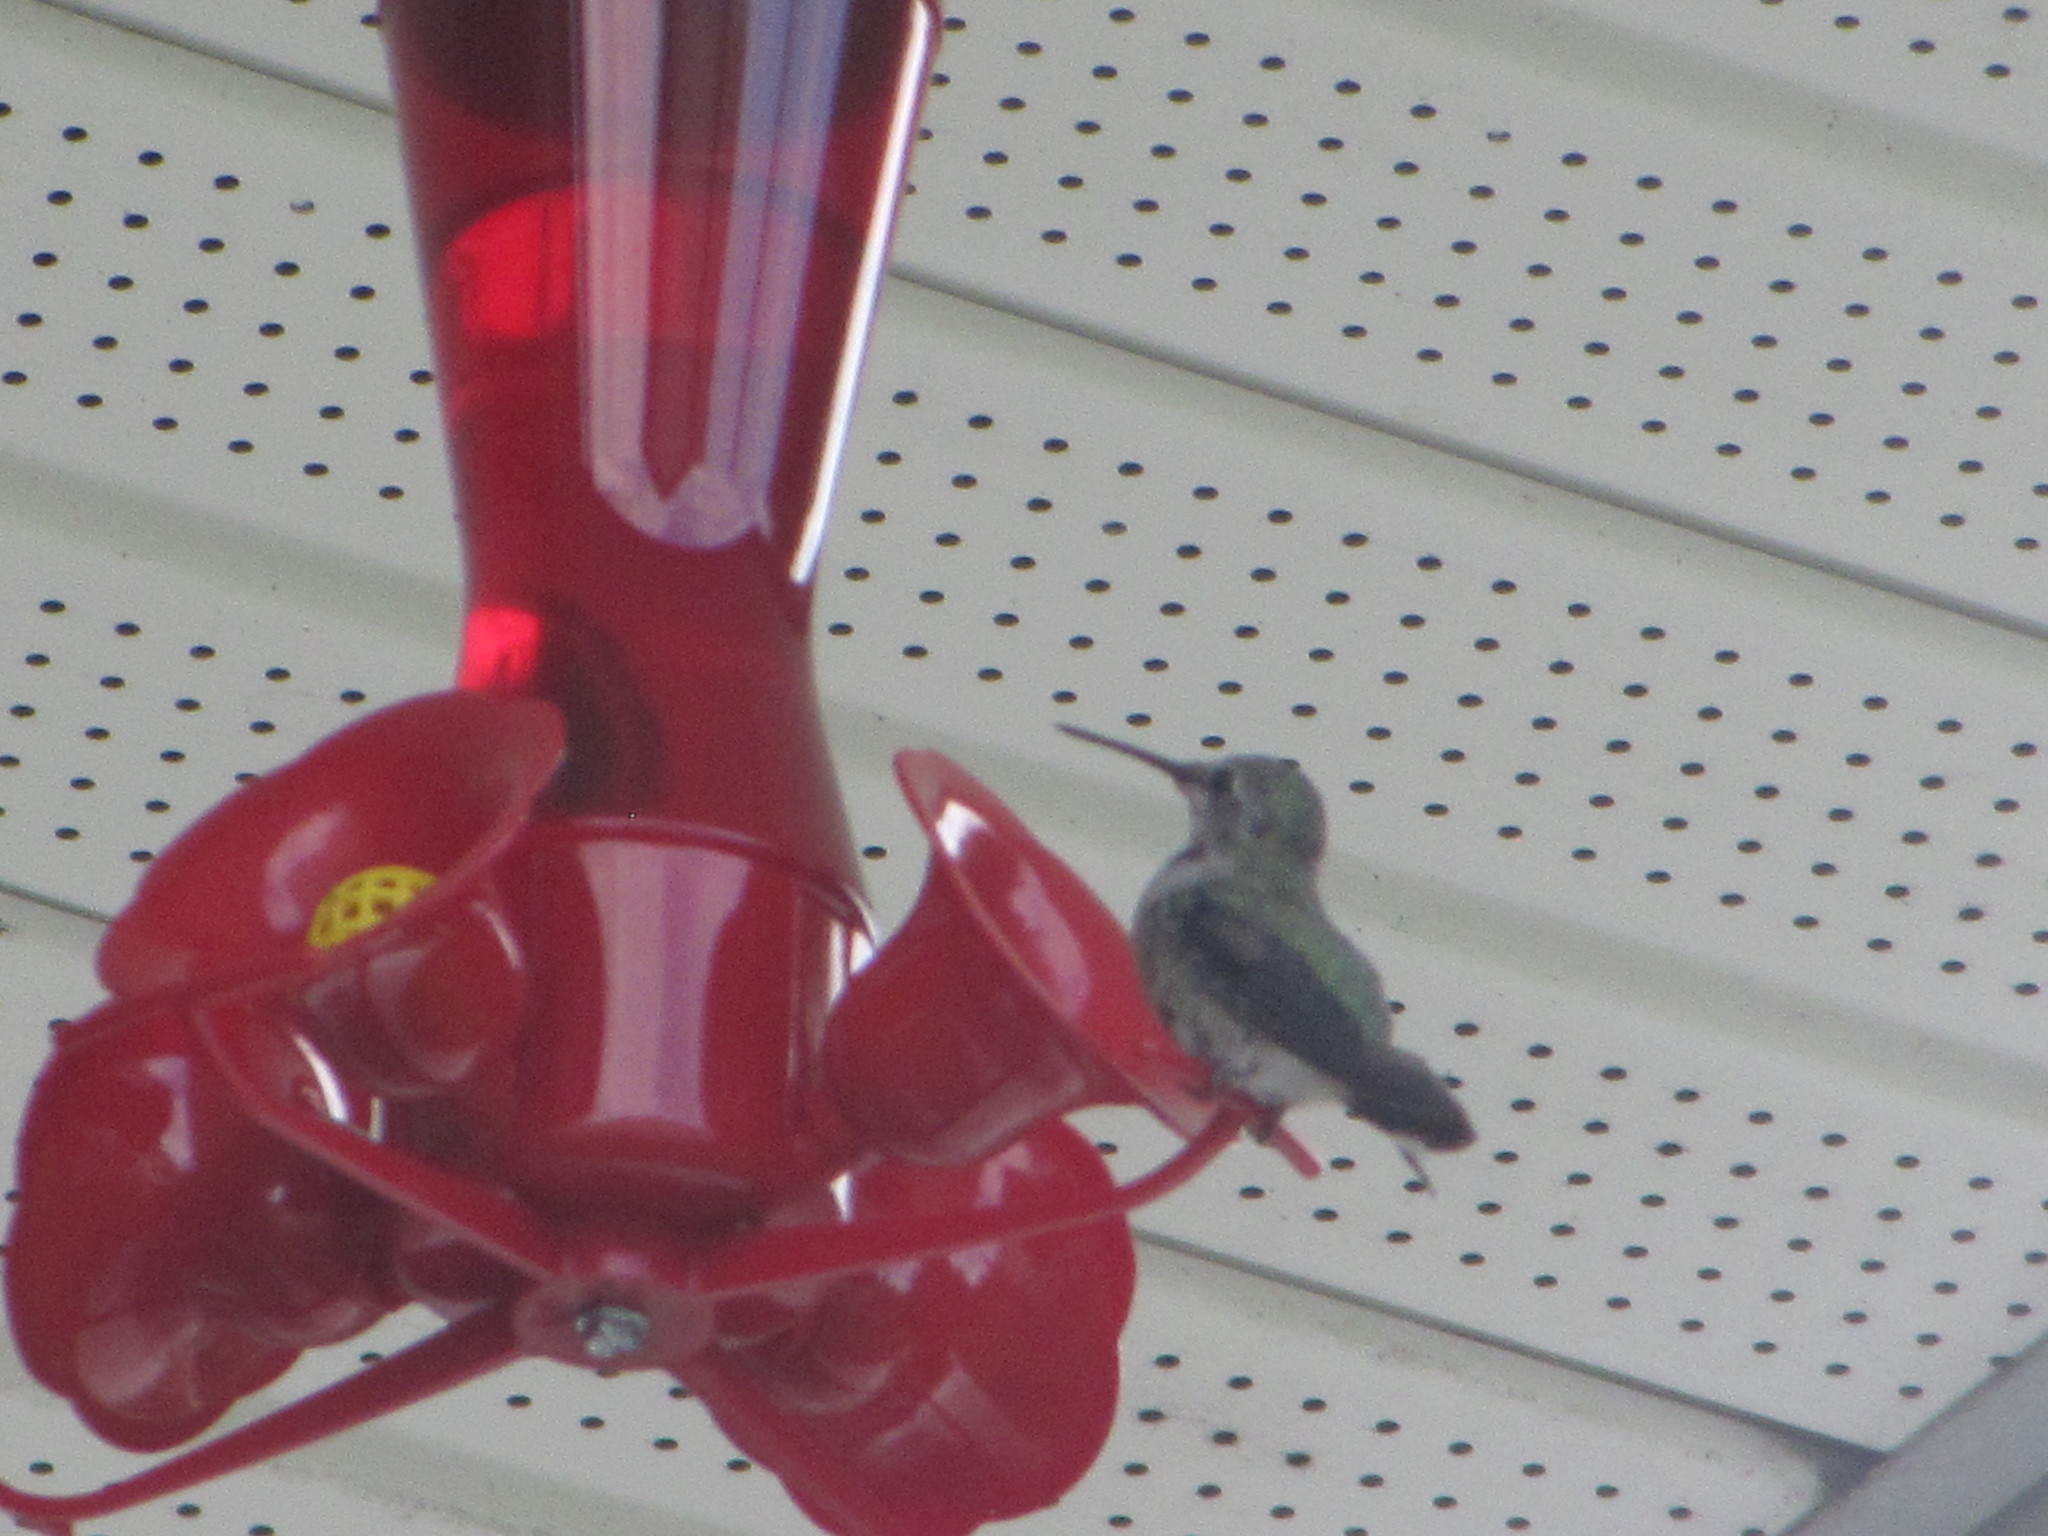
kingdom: Animalia
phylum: Chordata
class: Aves
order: Apodiformes
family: Trochilidae
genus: Calypte
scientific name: Calypte anna
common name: Anna's hummingbird
